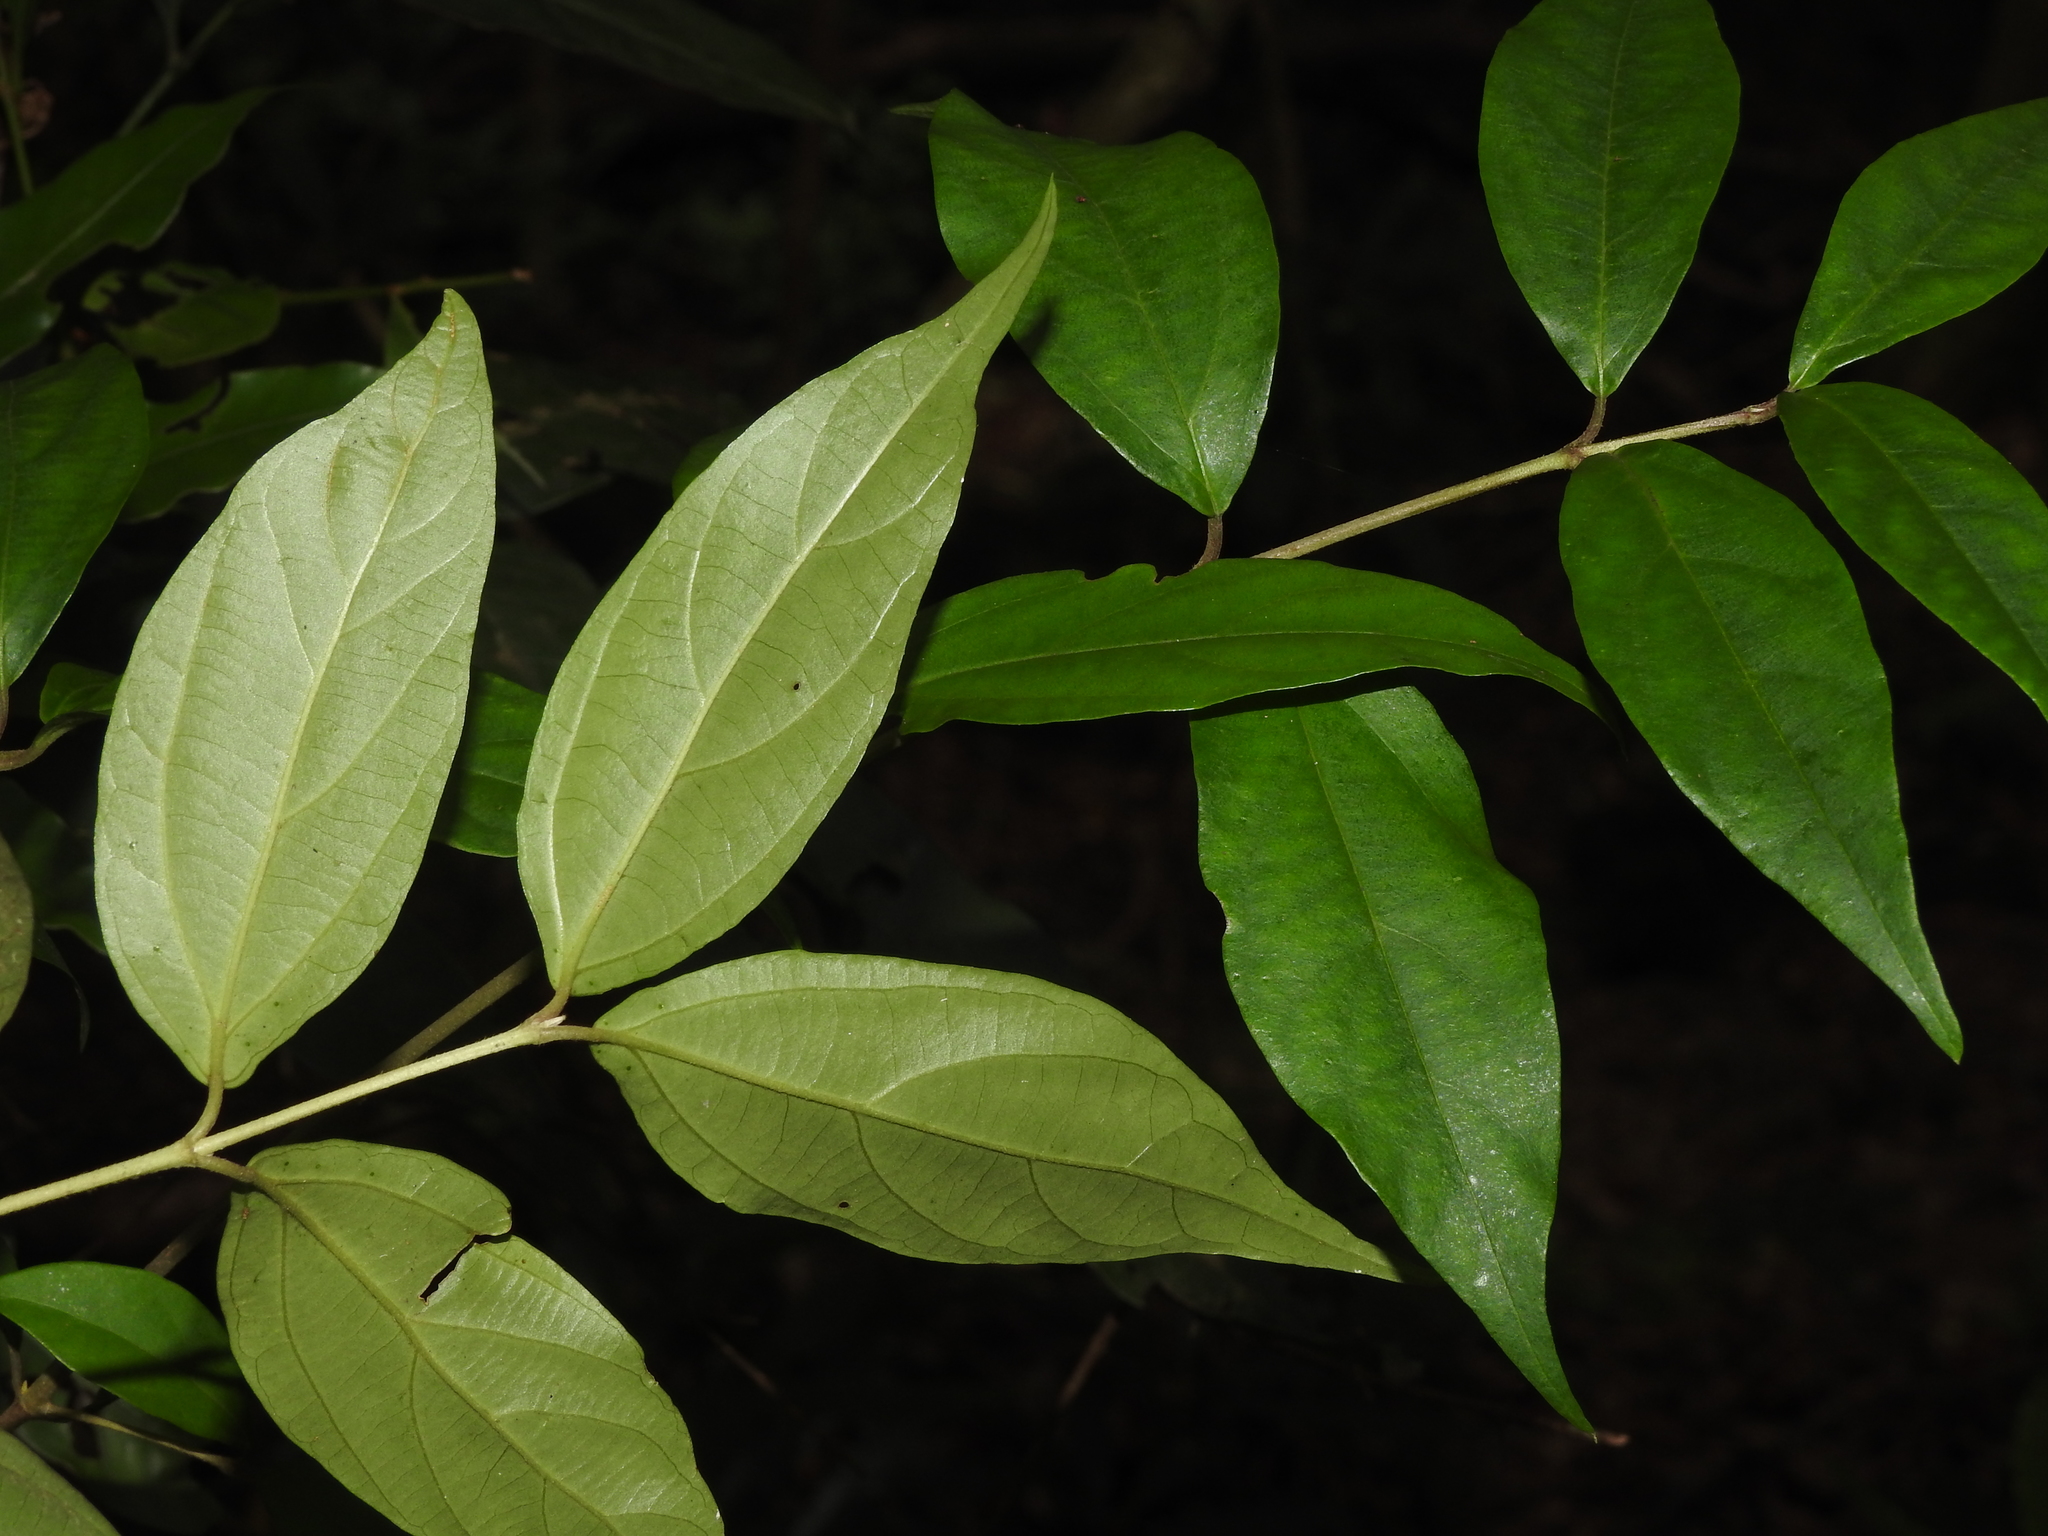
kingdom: Plantae
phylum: Tracheophyta
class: Magnoliopsida
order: Dipsacales
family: Viburnaceae
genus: Viburnum
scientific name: Viburnum integrifolium
